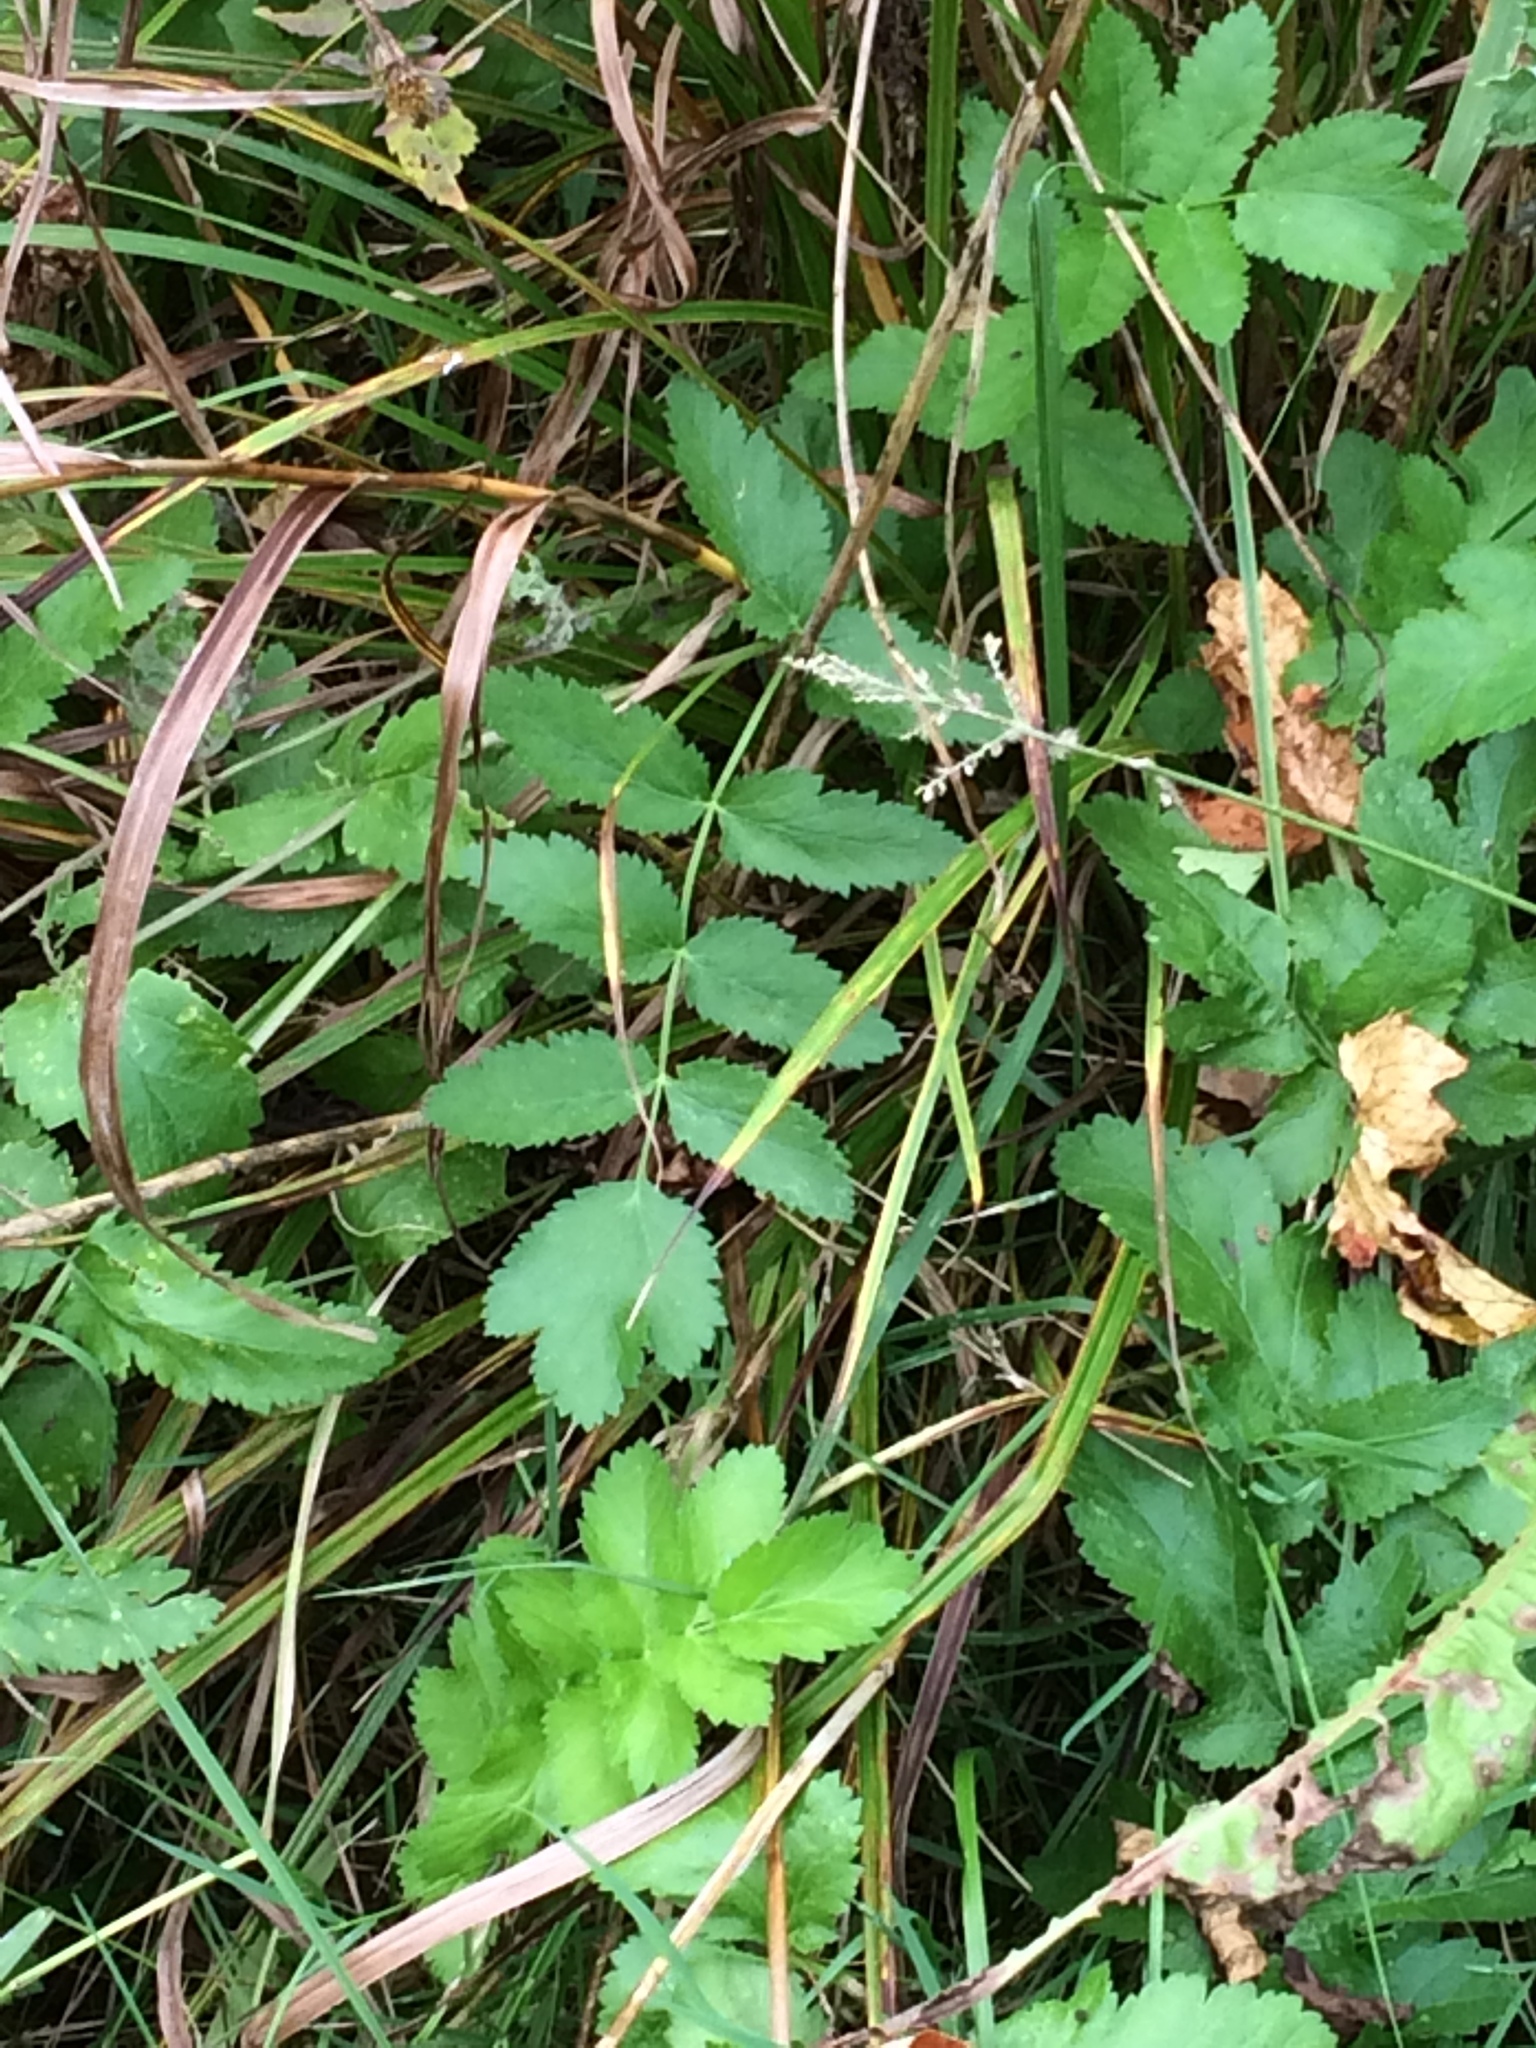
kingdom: Plantae
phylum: Tracheophyta
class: Magnoliopsida
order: Apiales
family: Apiaceae
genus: Pastinaca
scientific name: Pastinaca sativa
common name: Wild parsnip
